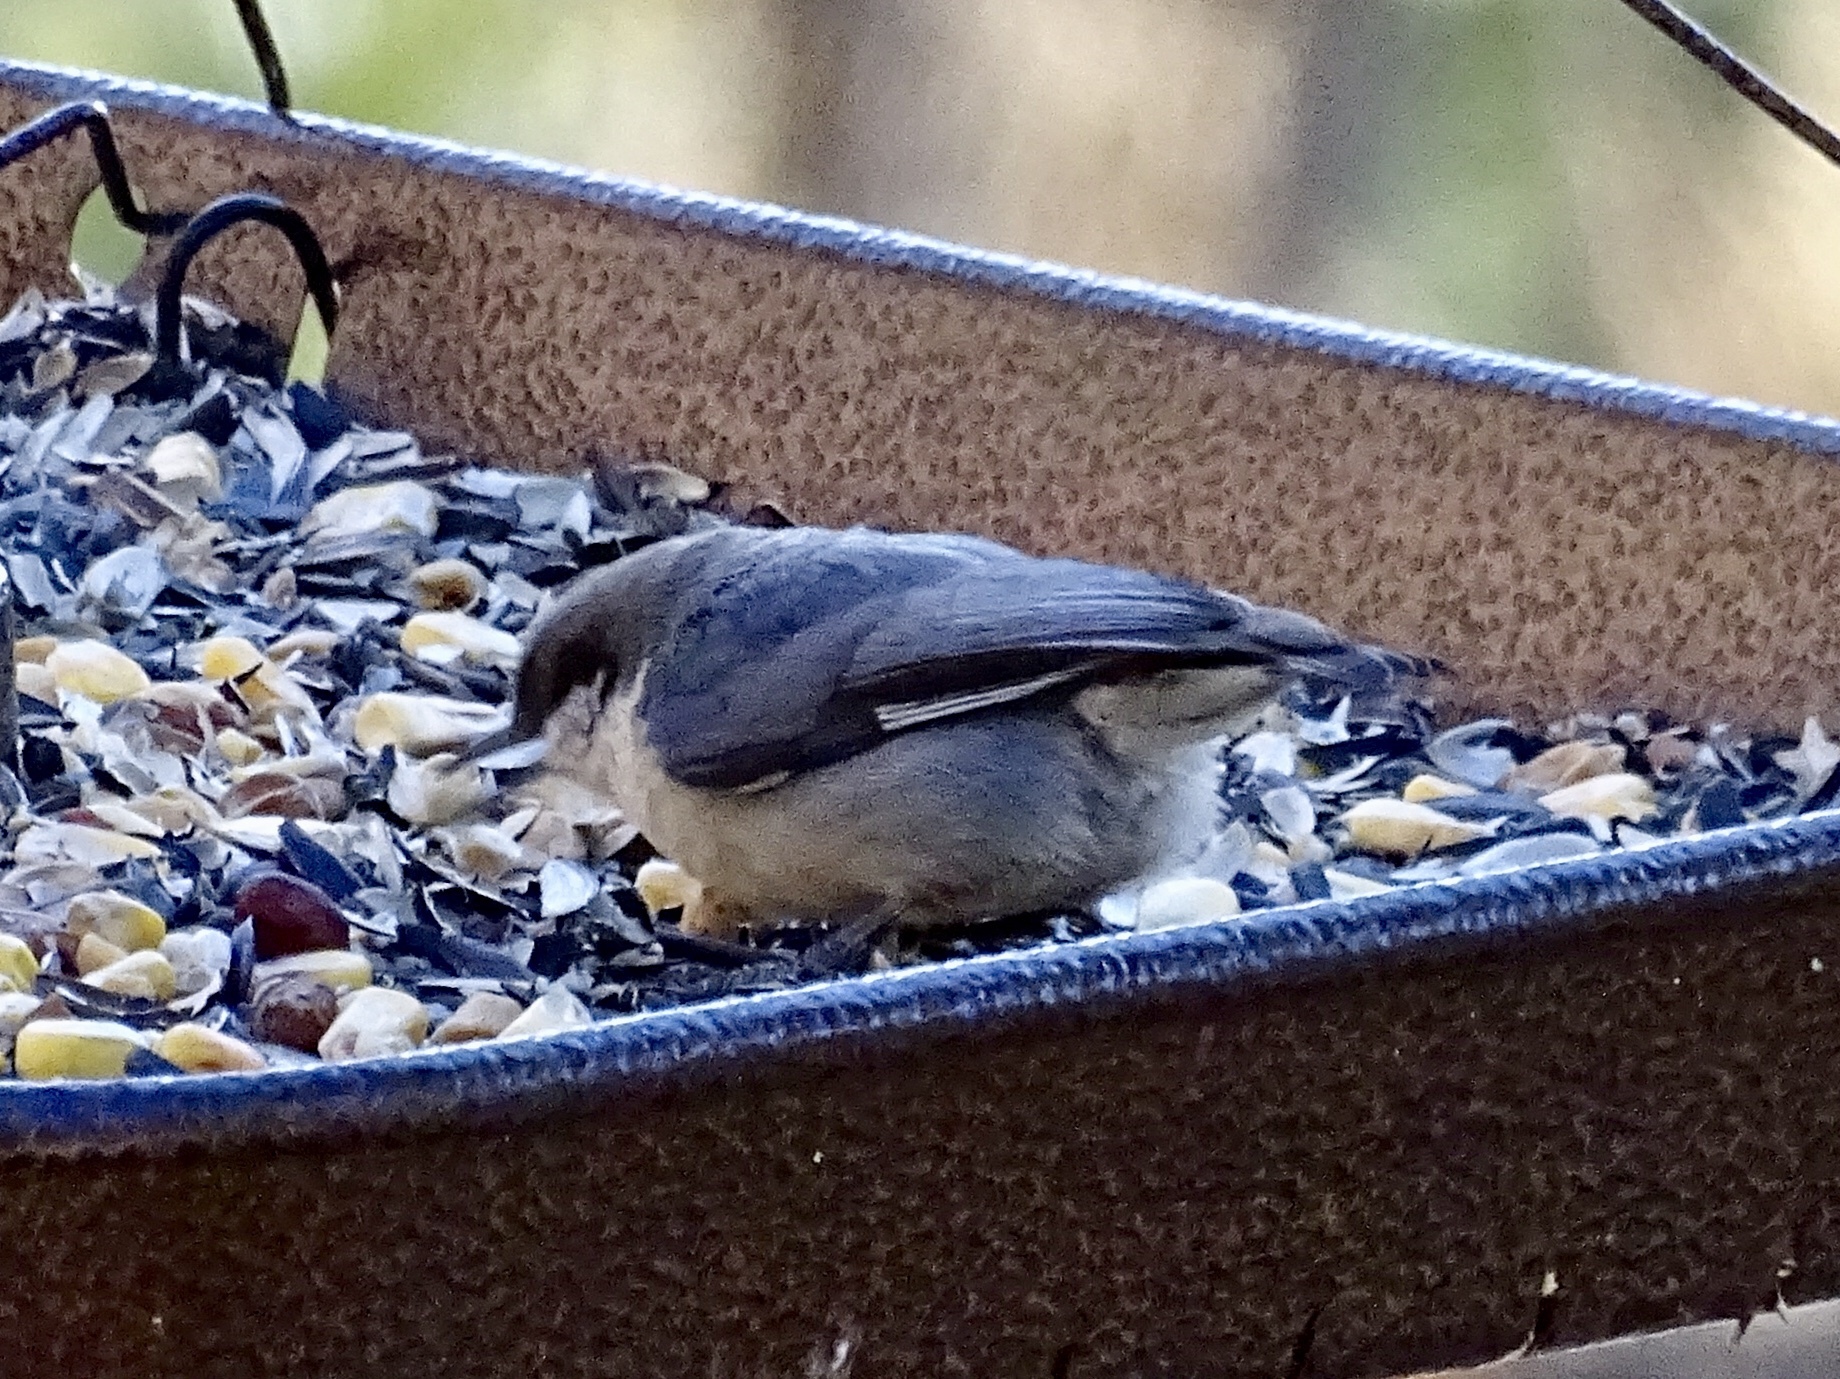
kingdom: Animalia
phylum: Chordata
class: Aves
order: Passeriformes
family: Sittidae
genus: Sitta
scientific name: Sitta pygmaea
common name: Pygmy nuthatch
